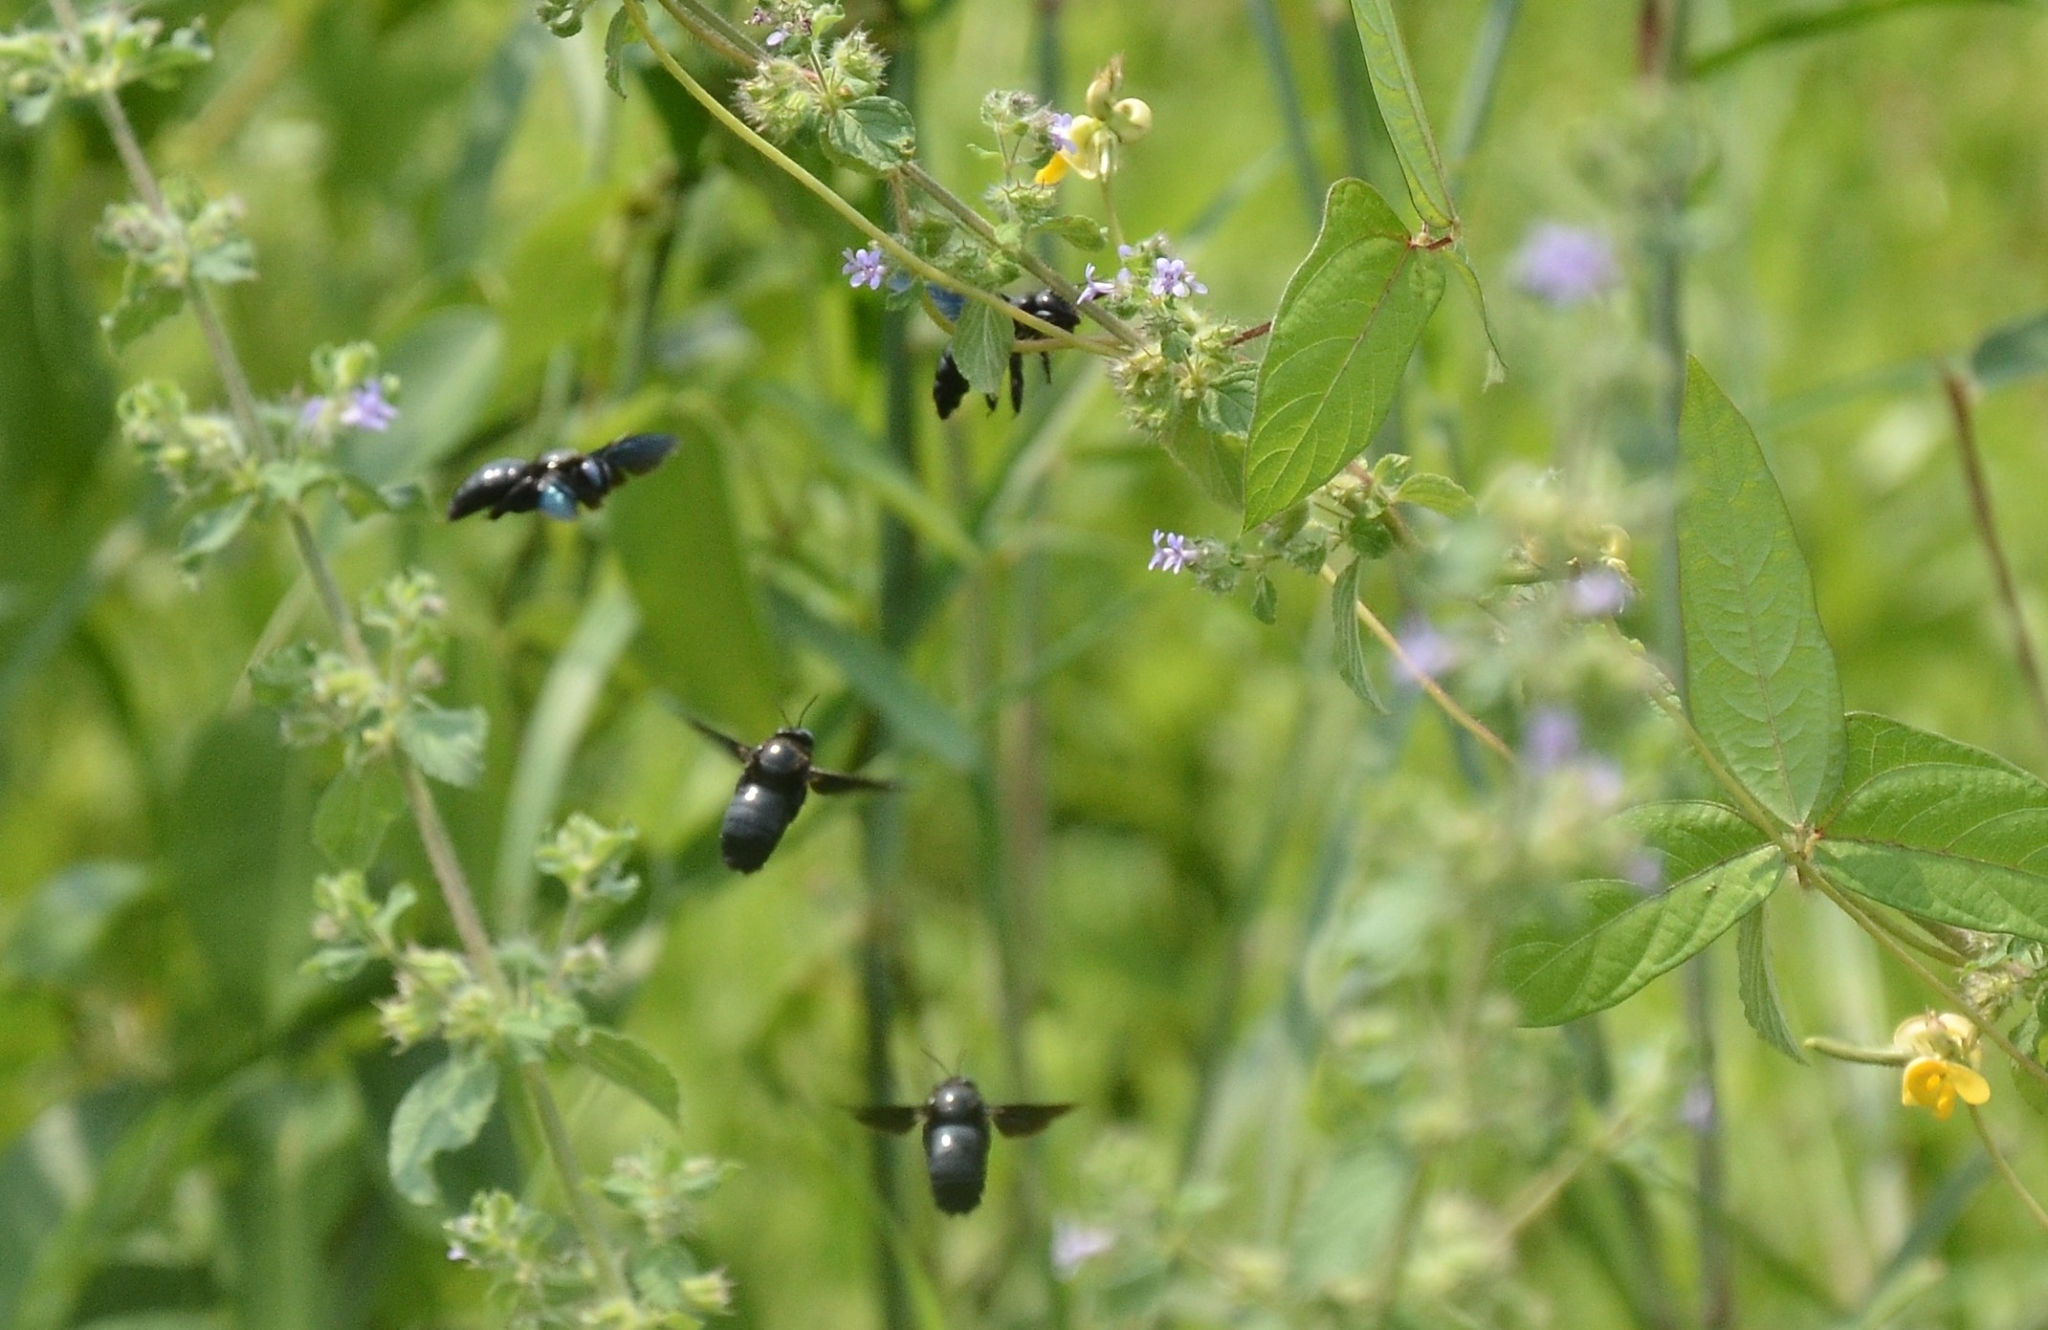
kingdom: Animalia
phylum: Arthropoda
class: Insecta
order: Hymenoptera
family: Apidae
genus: Xylocopa
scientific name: Xylocopa fenestrata
